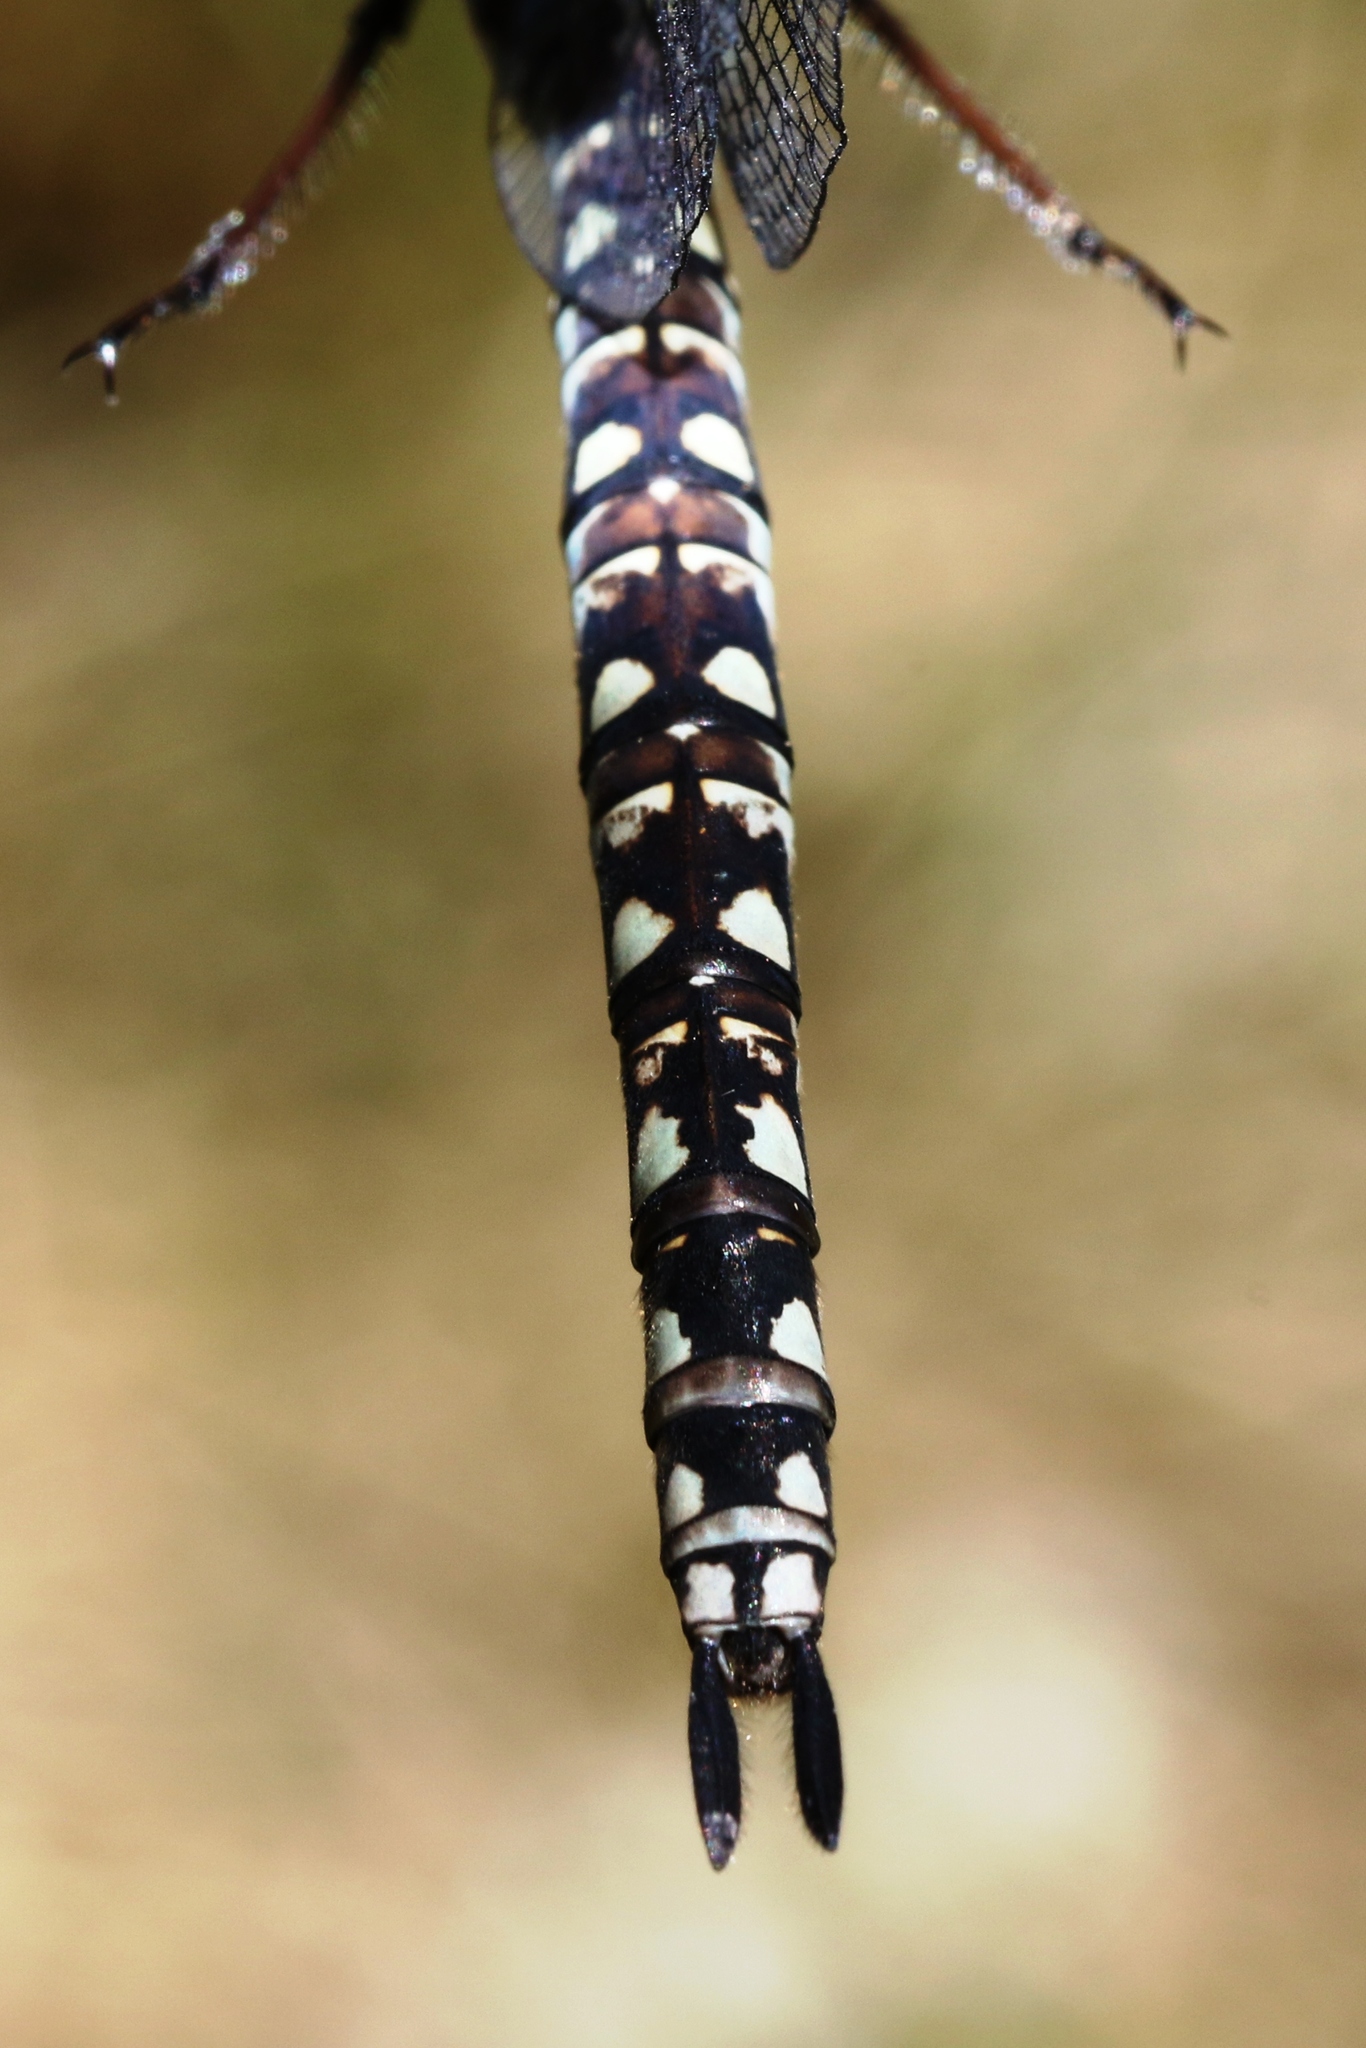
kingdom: Animalia
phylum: Arthropoda
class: Insecta
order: Odonata
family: Aeshnidae
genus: Aeshna
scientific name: Aeshna septentrionalis
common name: Azure darner
